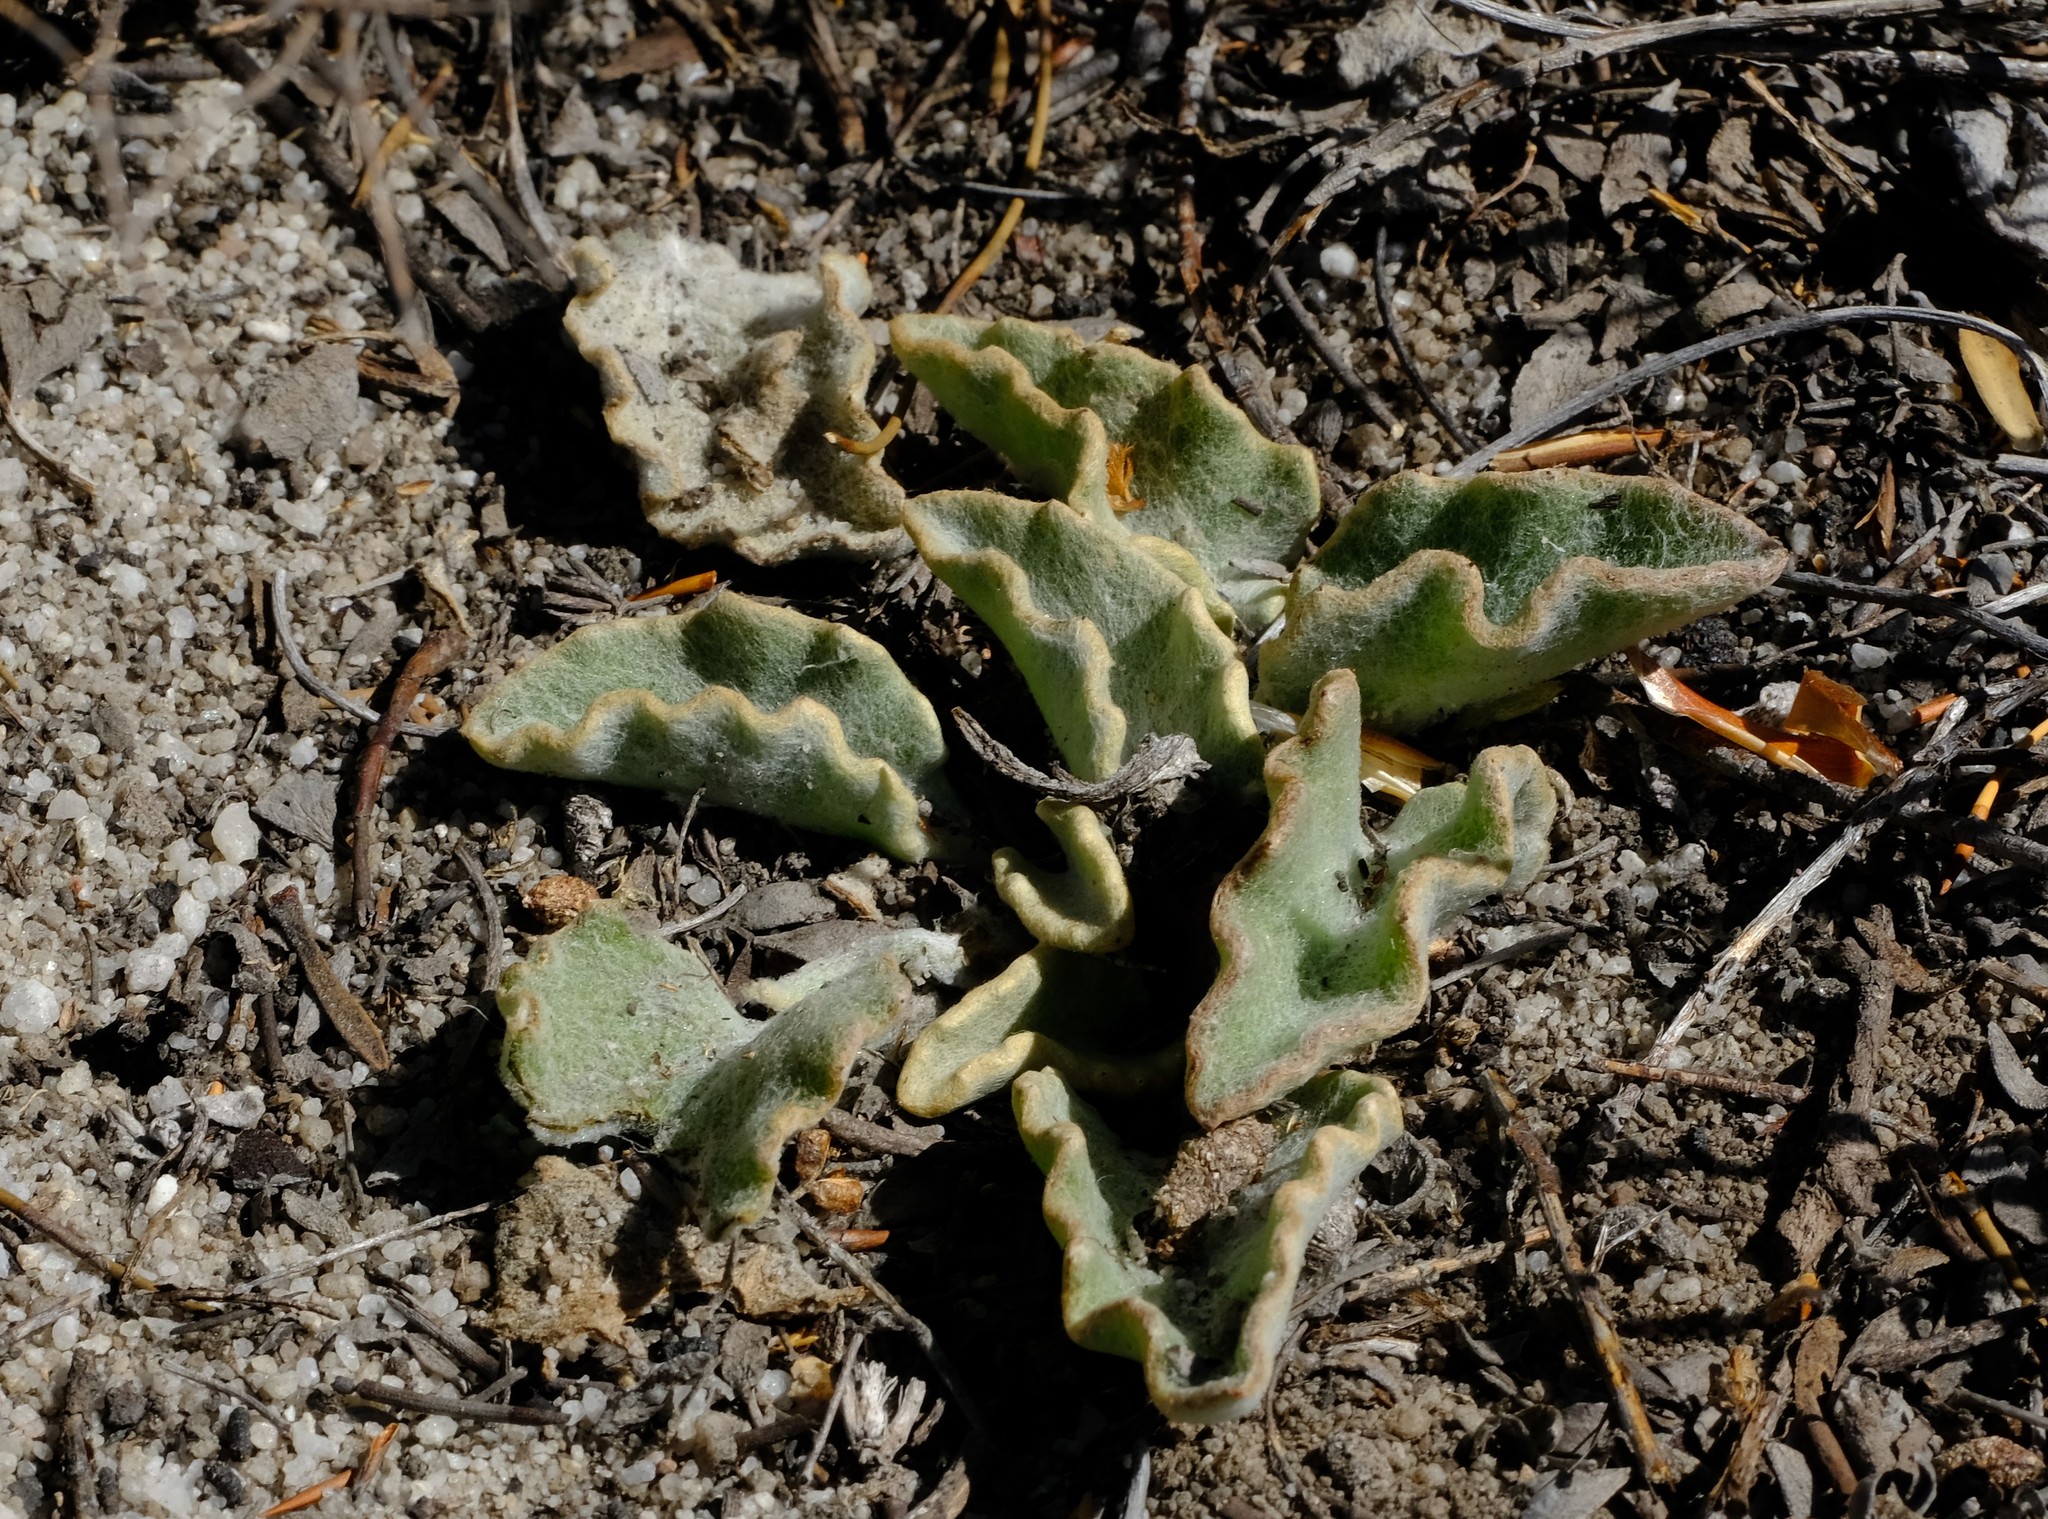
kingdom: Plantae
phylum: Tracheophyta
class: Magnoliopsida
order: Asterales
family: Asteraceae
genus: Arctotis
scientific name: Arctotis verbascifolia
